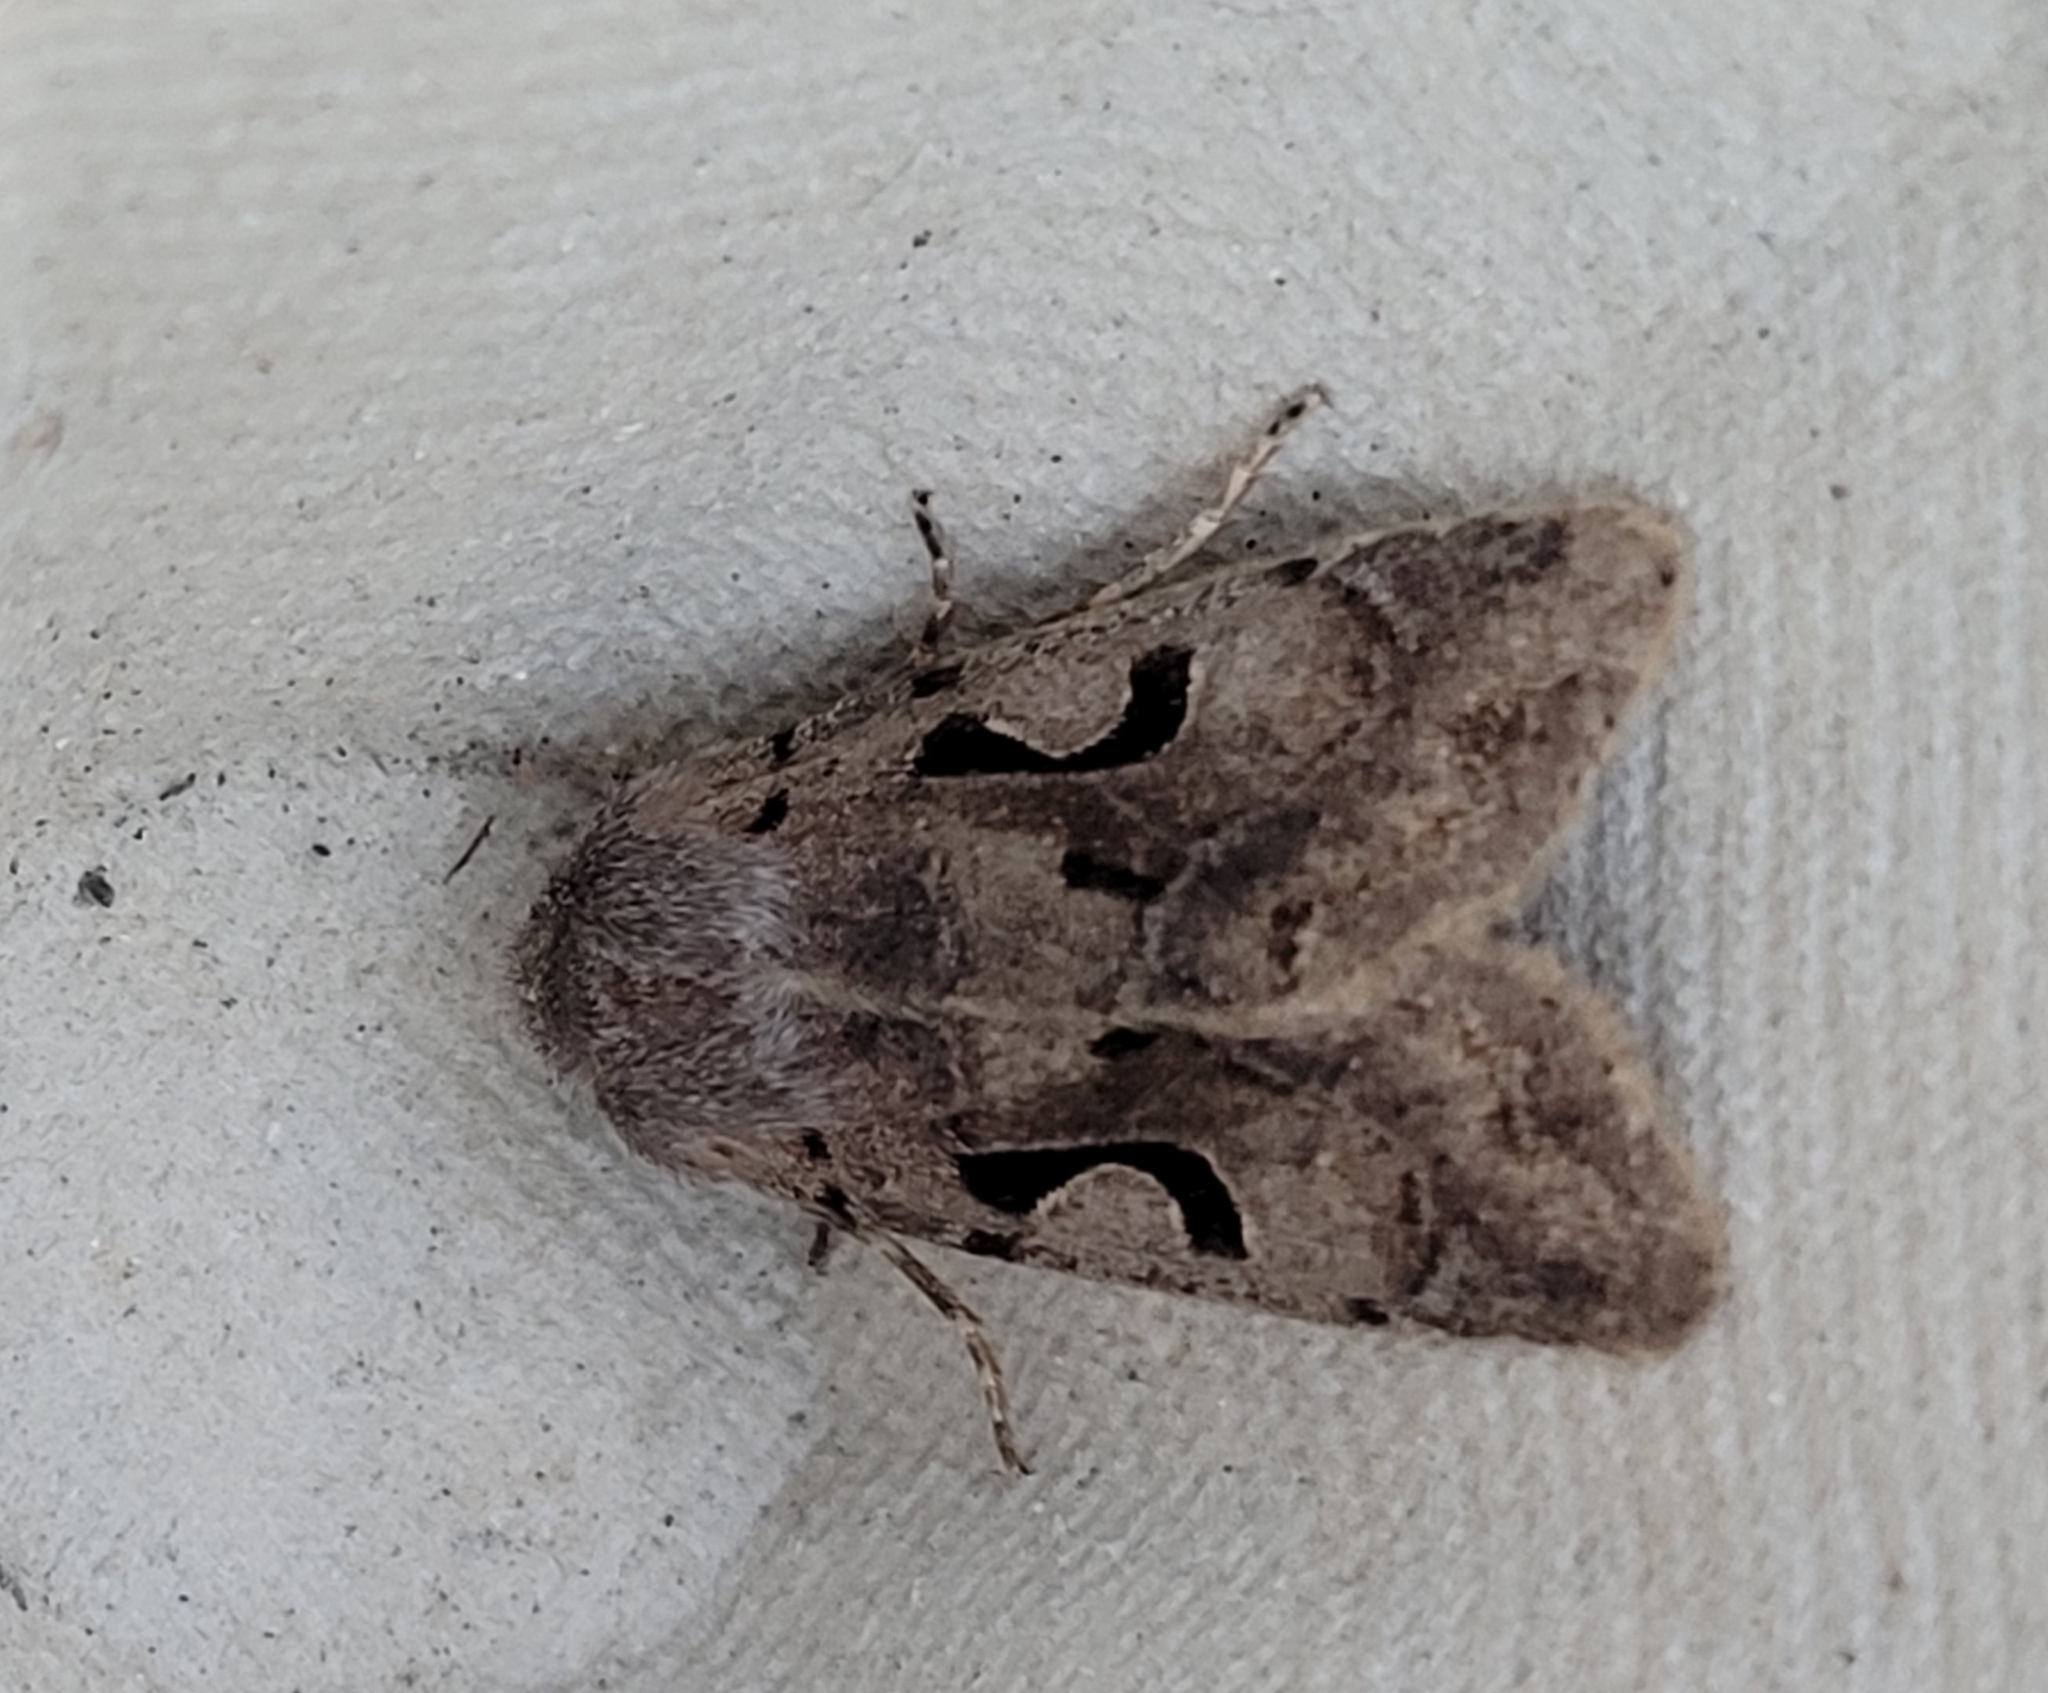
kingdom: Animalia
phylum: Arthropoda
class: Insecta
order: Lepidoptera
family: Noctuidae
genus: Orthosia
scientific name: Orthosia gothica
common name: Hebrew character
